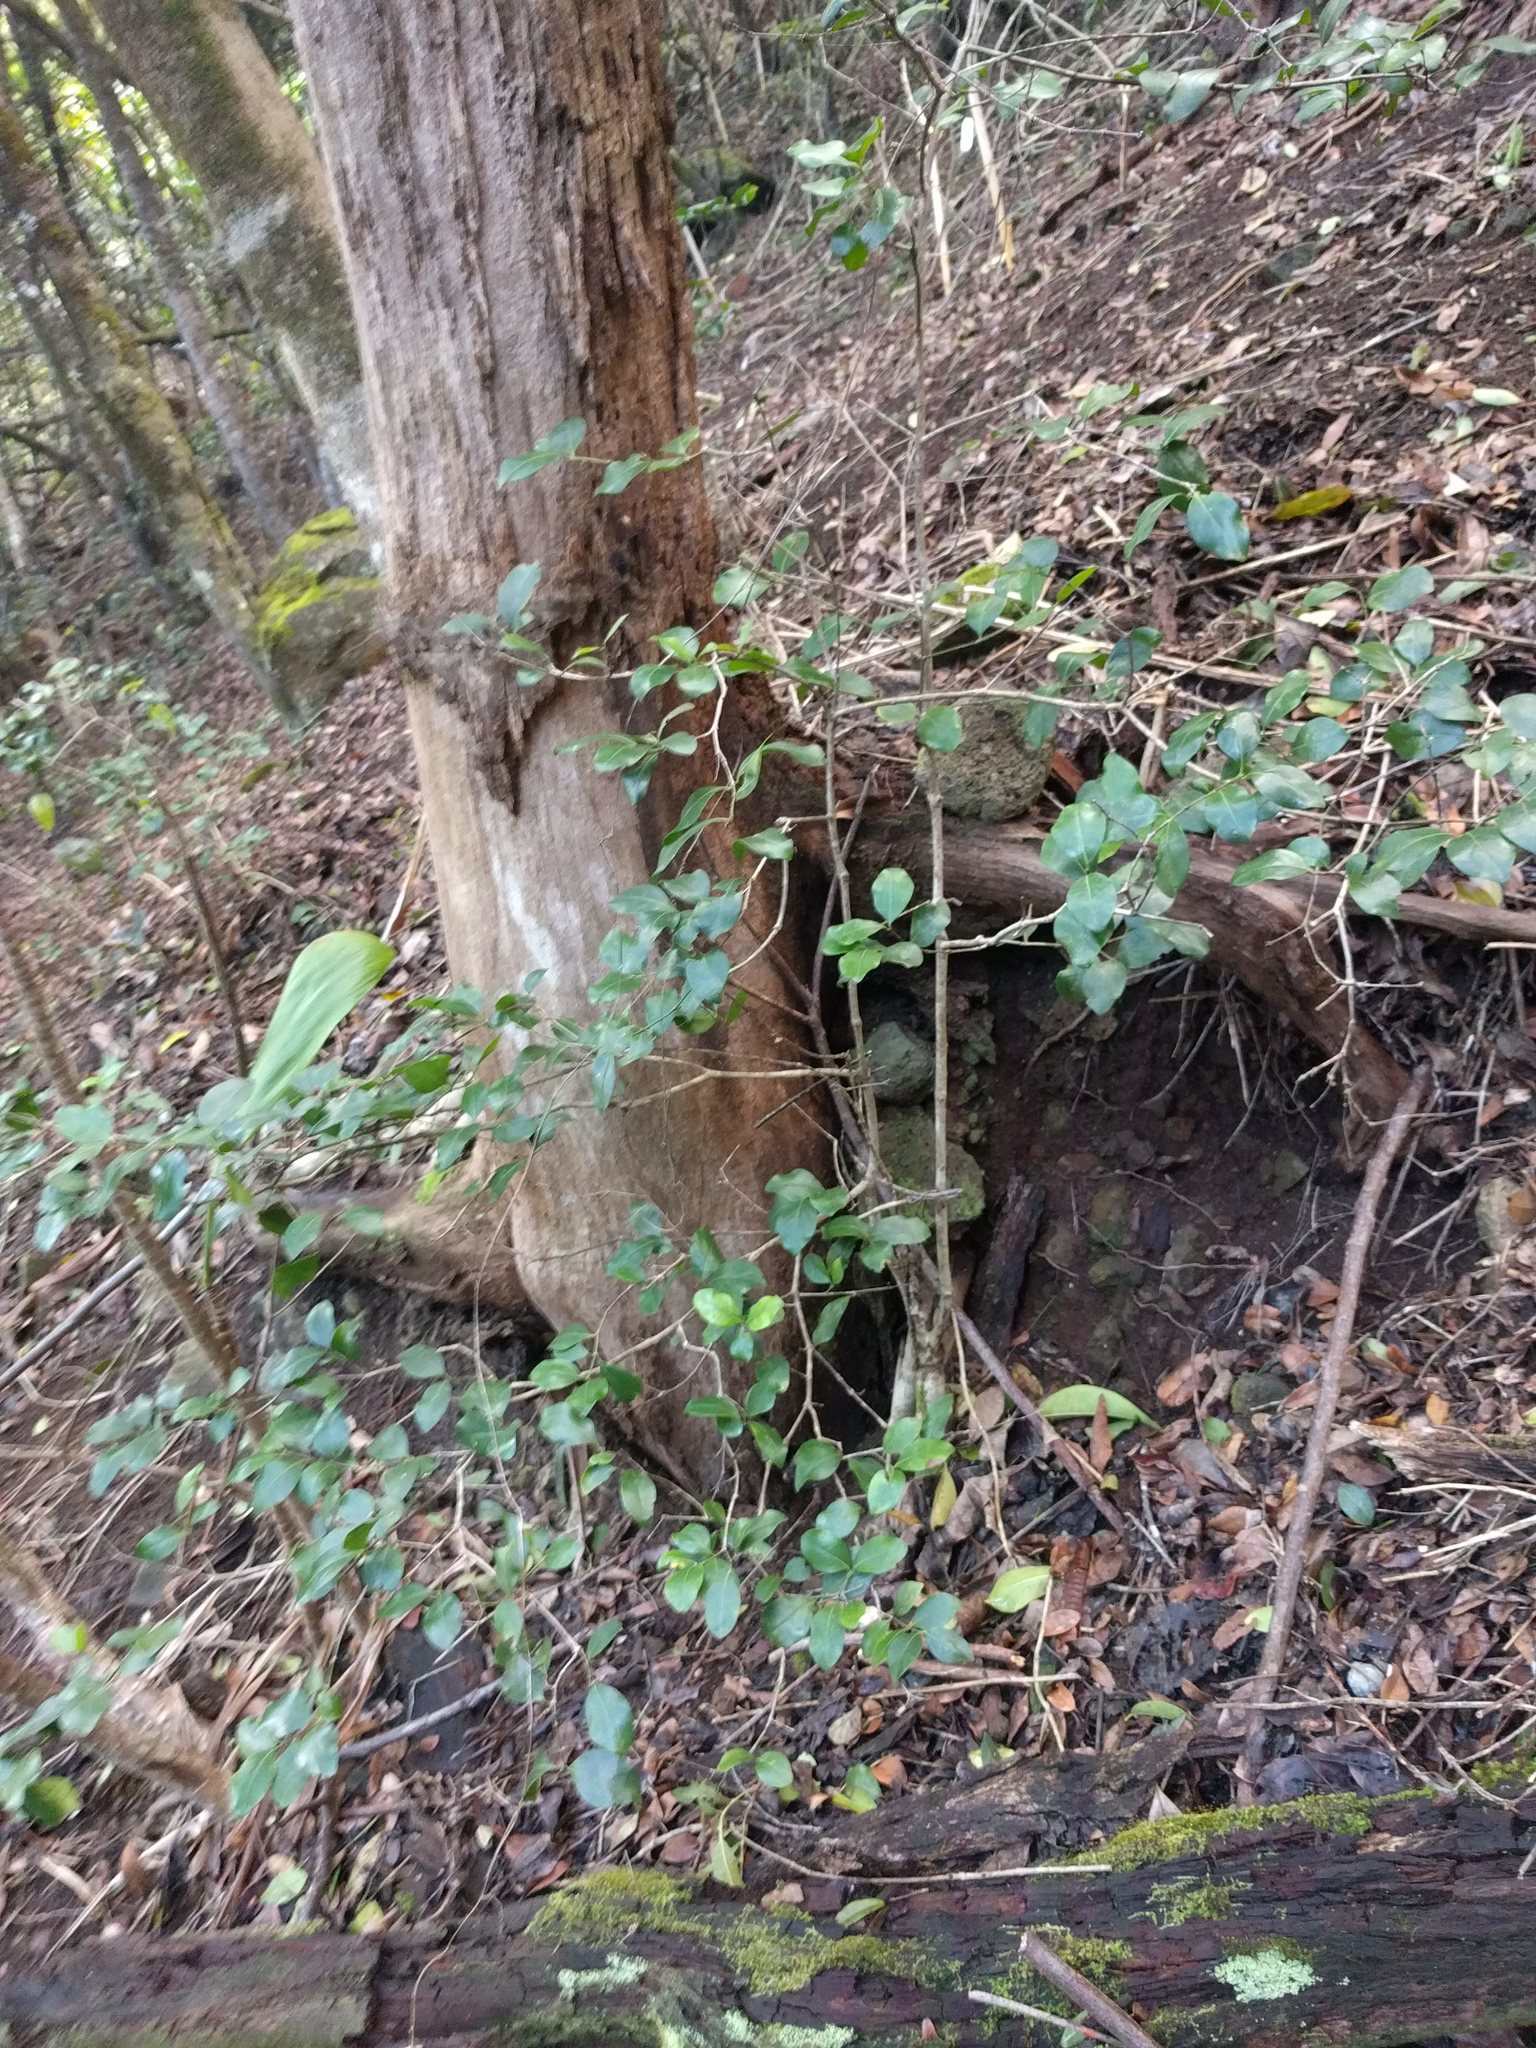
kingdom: Plantae
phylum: Tracheophyta
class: Magnoliopsida
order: Gentianales
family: Rubiaceae
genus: Psydrax
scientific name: Psydrax odoratus
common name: Alahe'e
